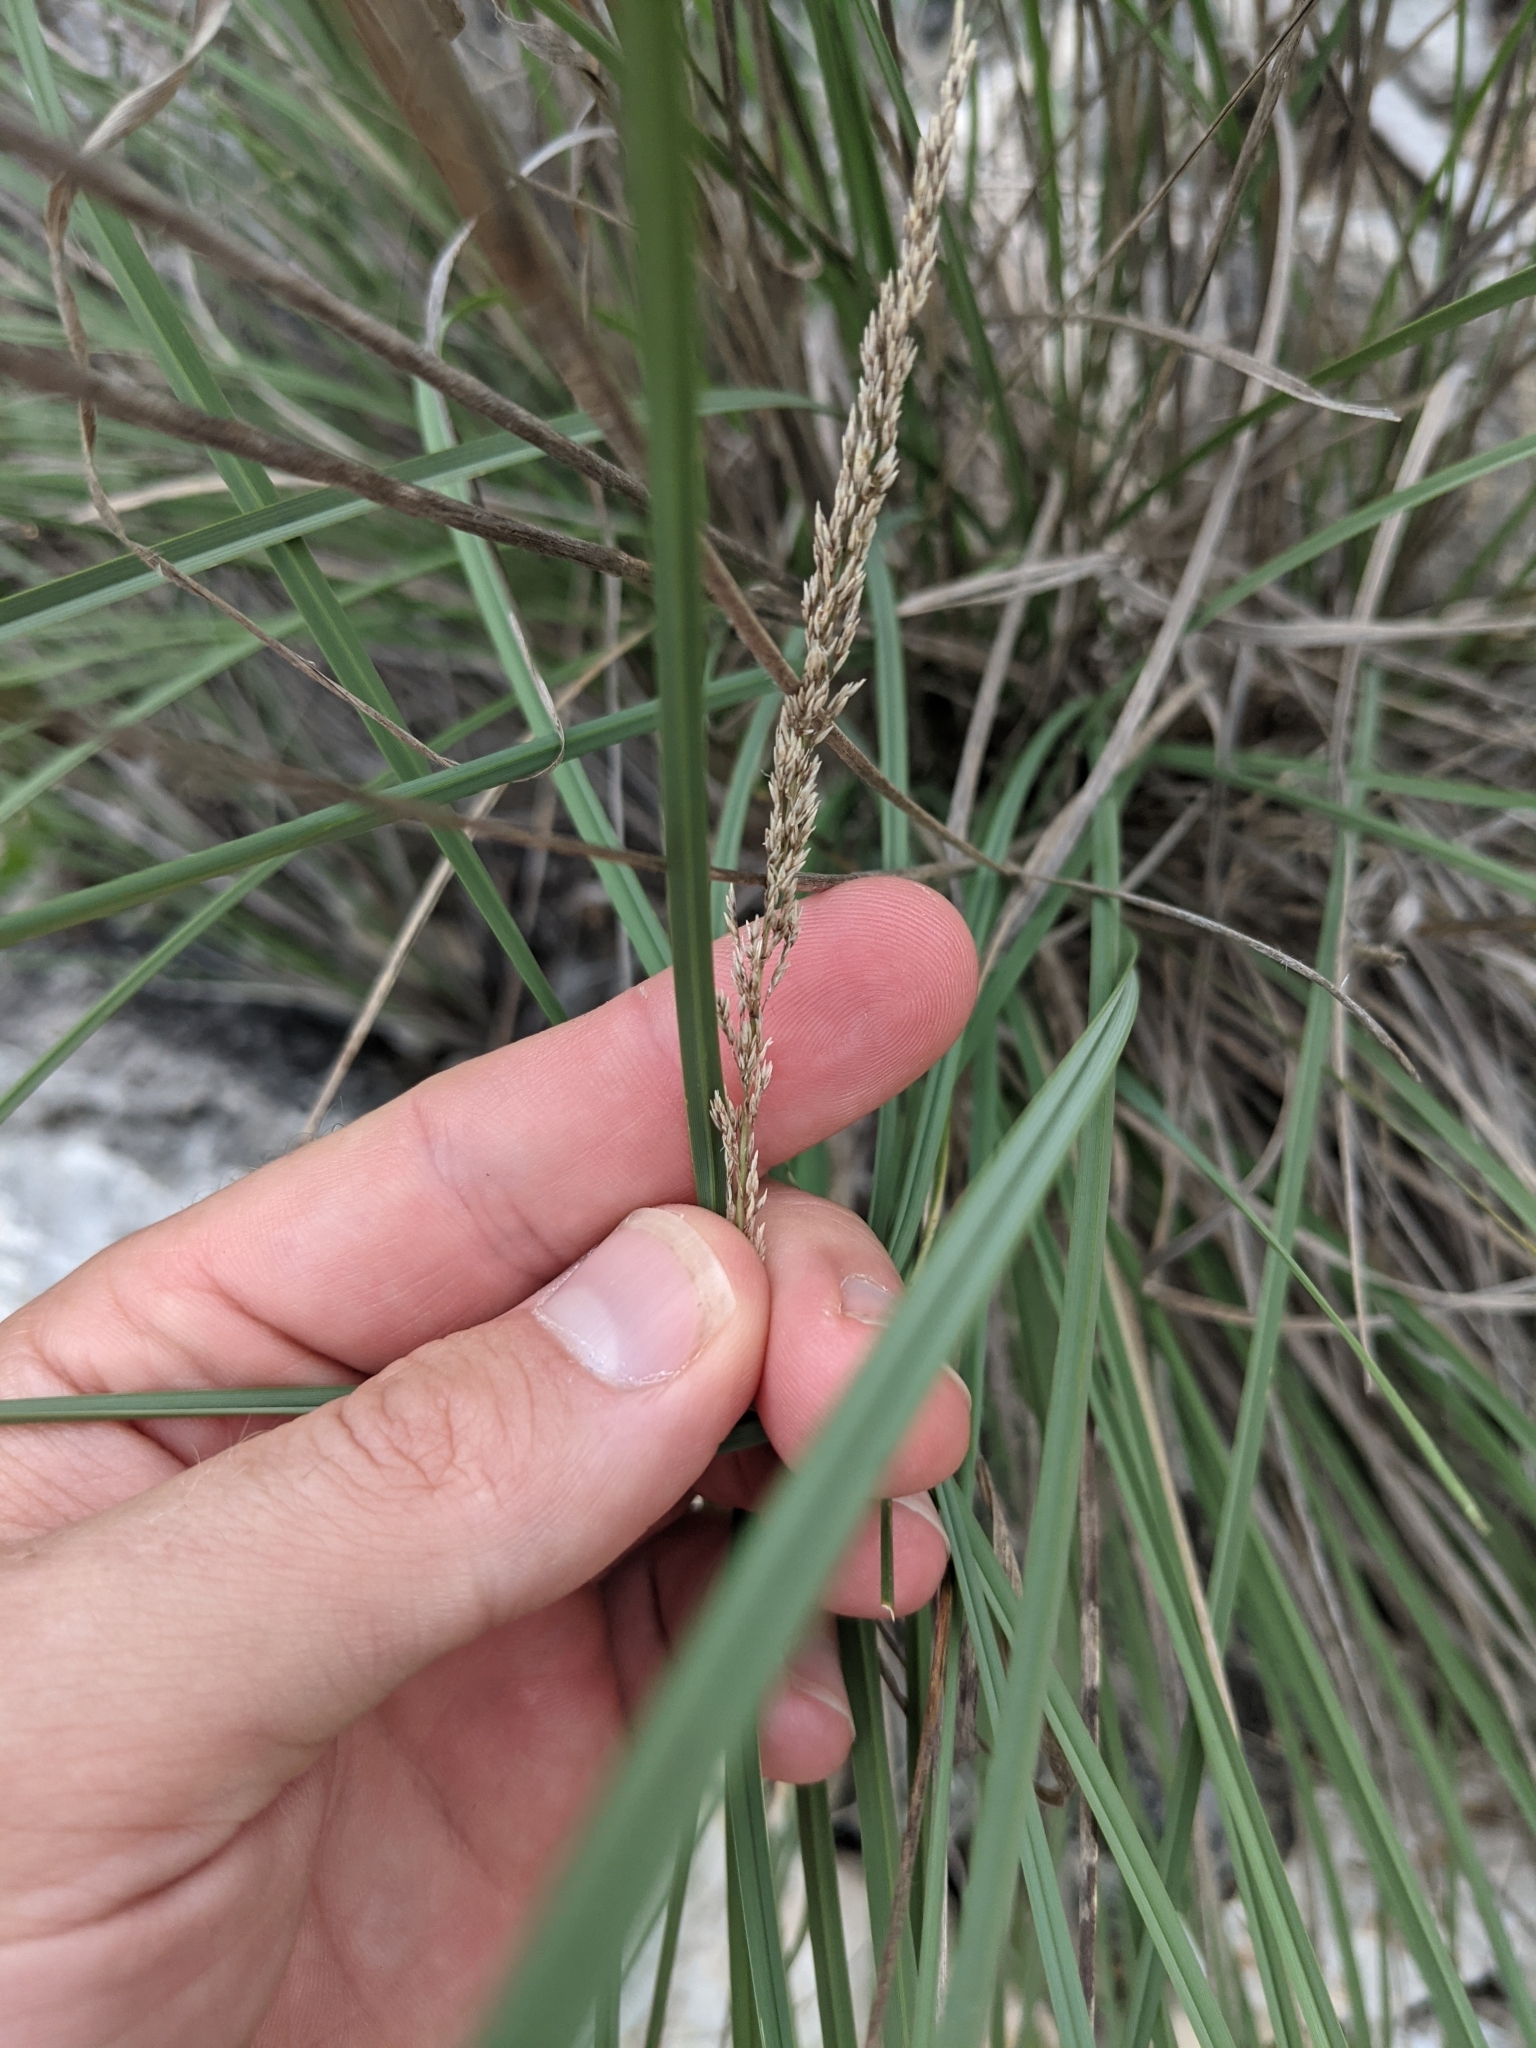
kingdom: Plantae
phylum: Tracheophyta
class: Liliopsida
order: Poales
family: Poaceae
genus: Muhlenbergia
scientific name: Muhlenbergia lindheimeri
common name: Lindheimer's muhly
